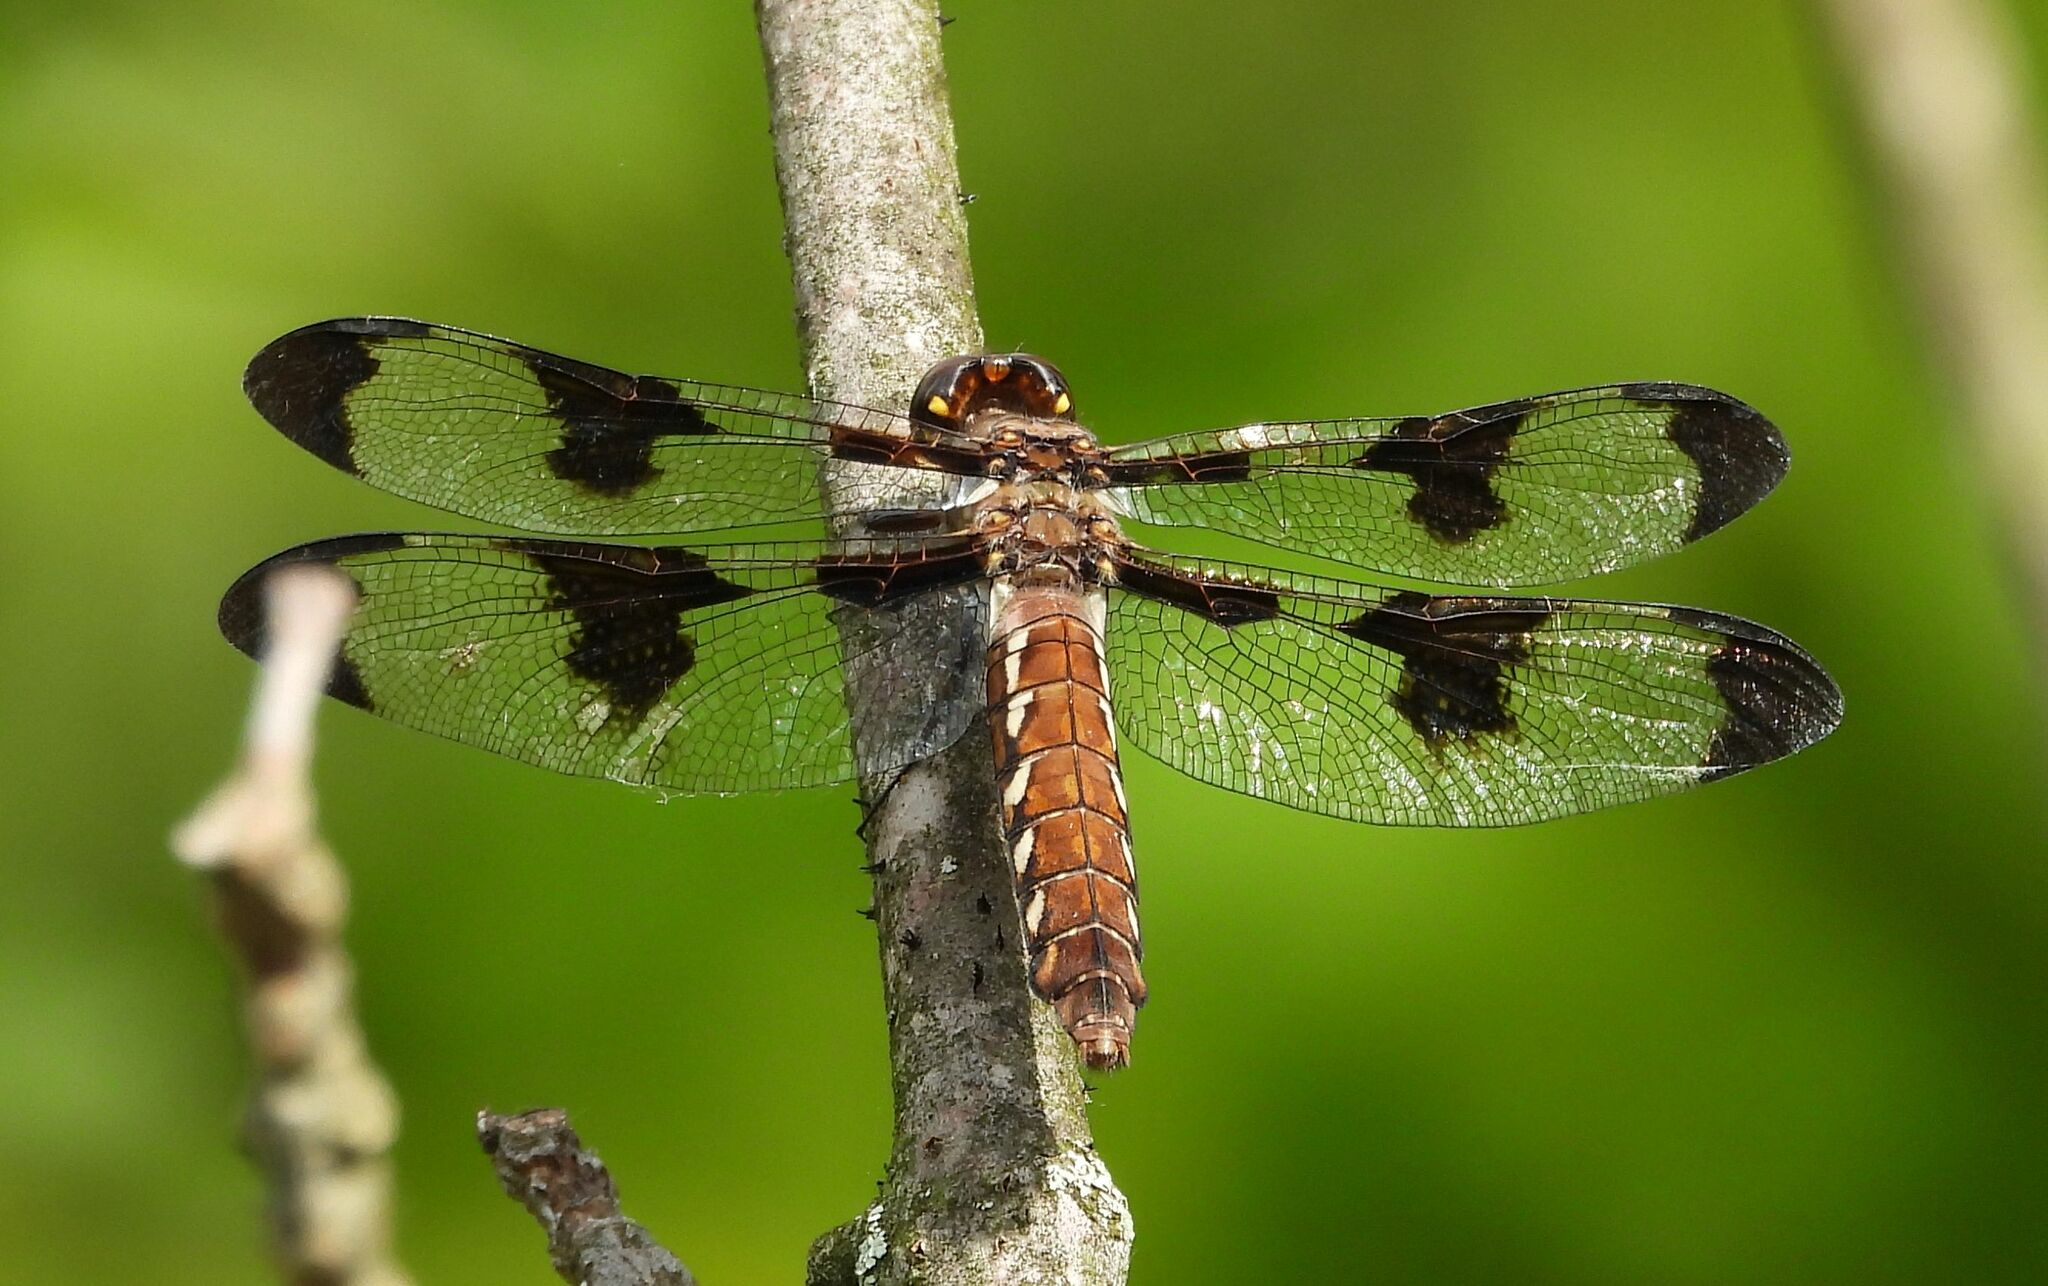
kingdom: Animalia
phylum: Arthropoda
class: Insecta
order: Odonata
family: Libellulidae
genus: Plathemis
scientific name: Plathemis lydia
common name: Common whitetail
